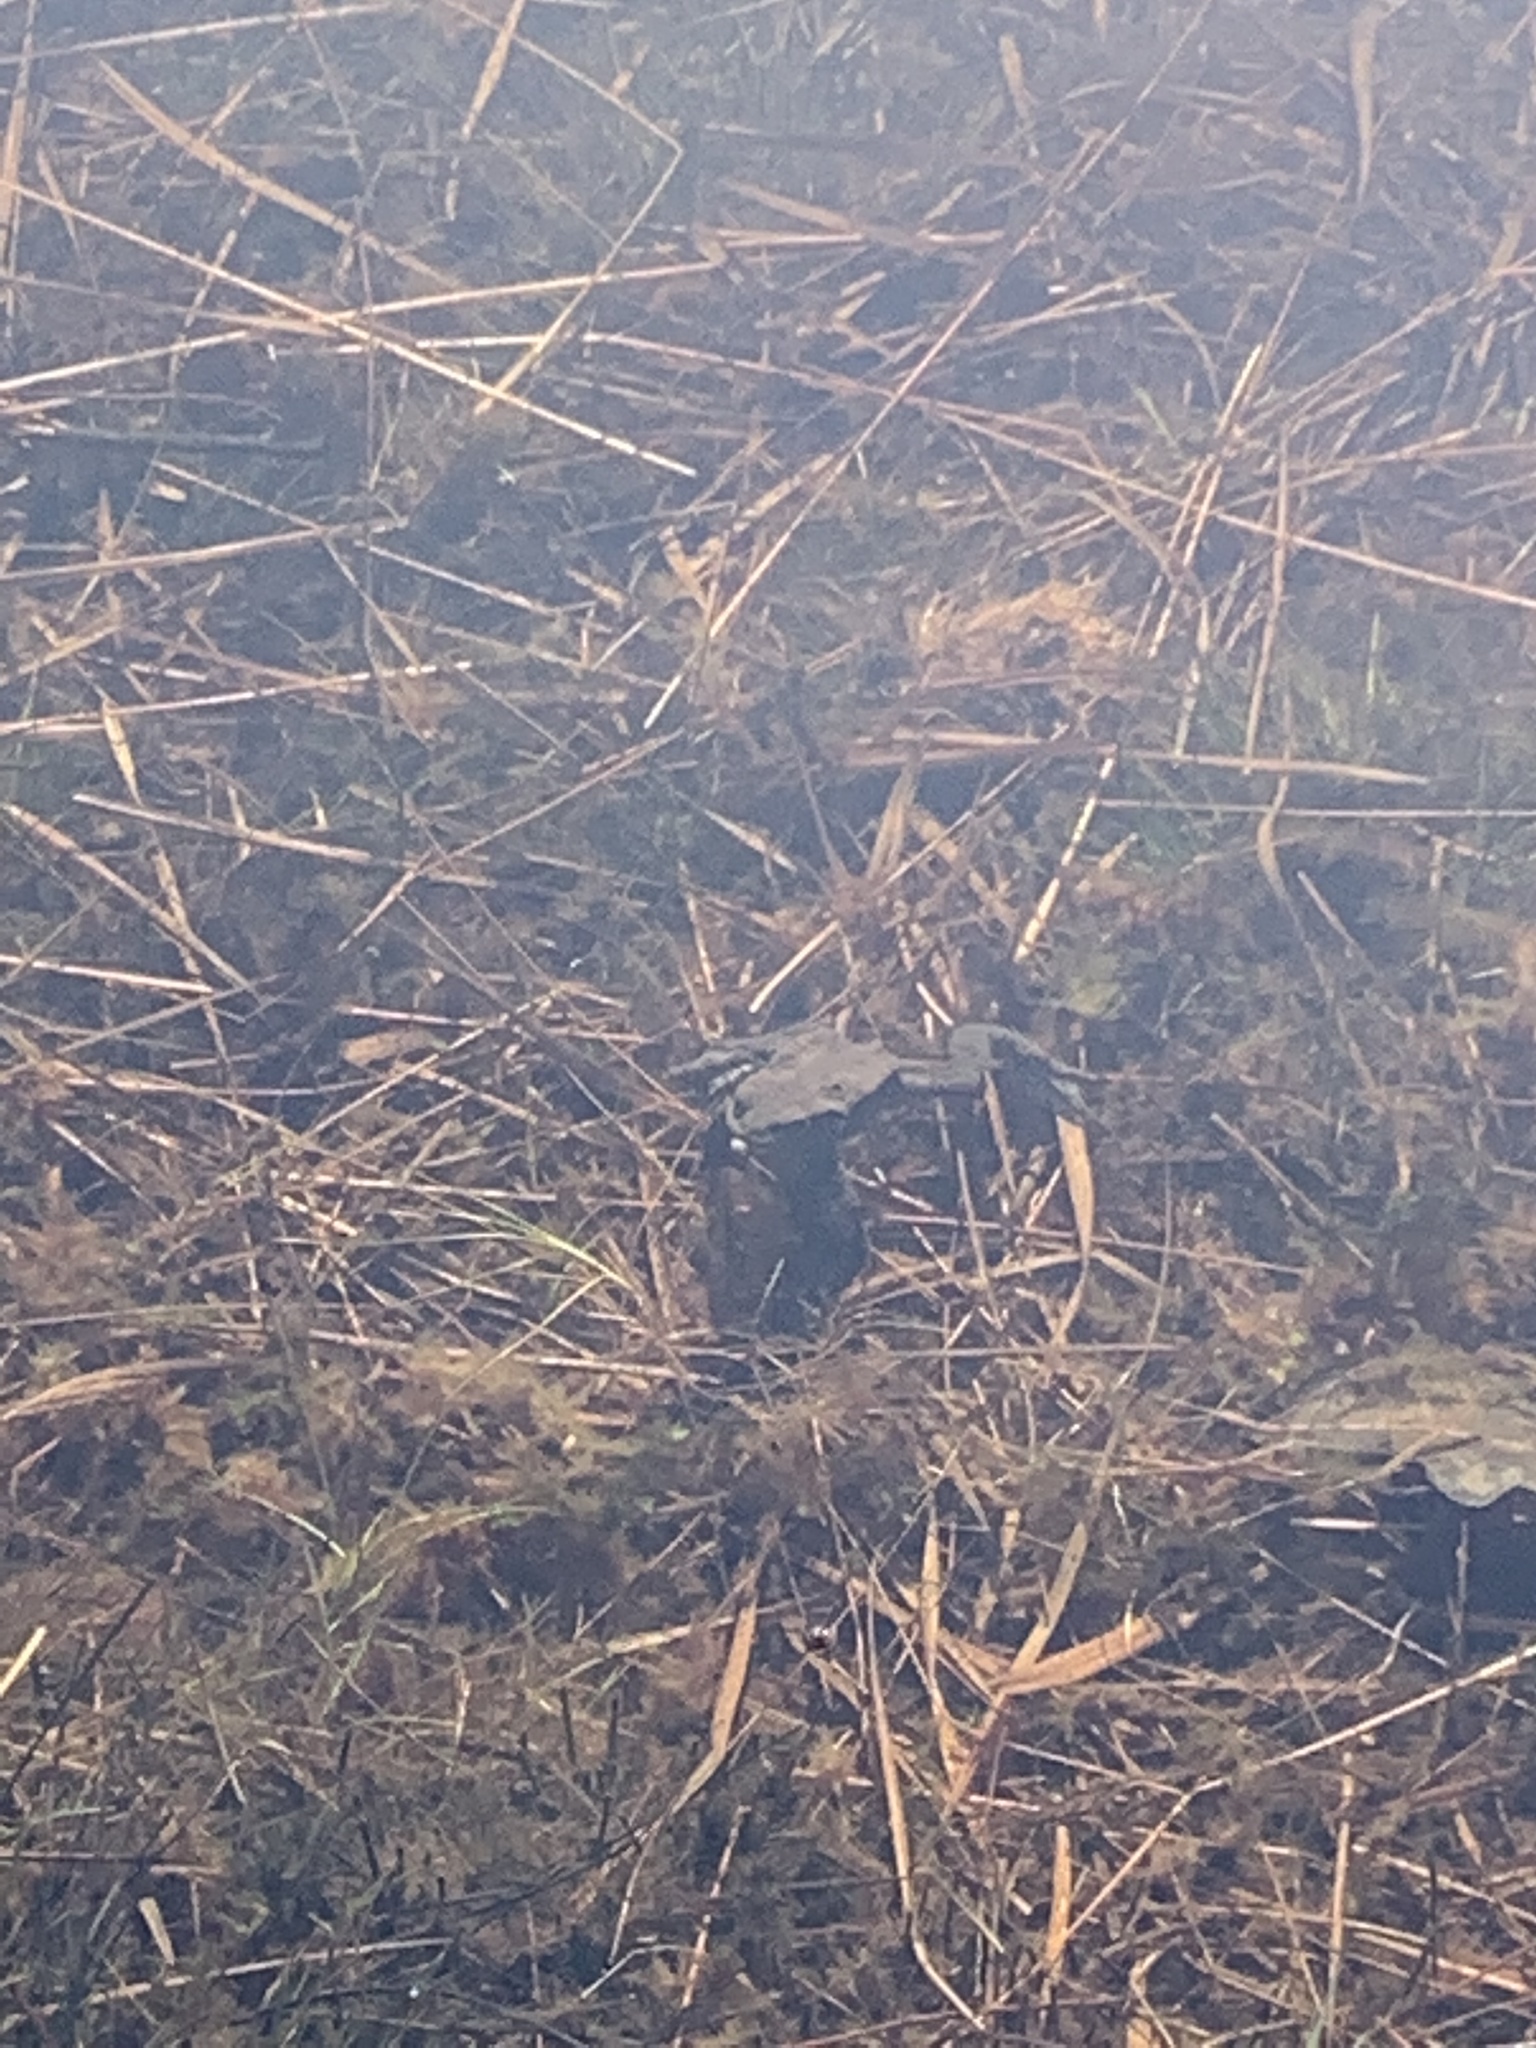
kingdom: Animalia
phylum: Chordata
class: Amphibia
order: Anura
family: Bufonidae
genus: Bufo
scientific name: Bufo bufo
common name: Common toad
